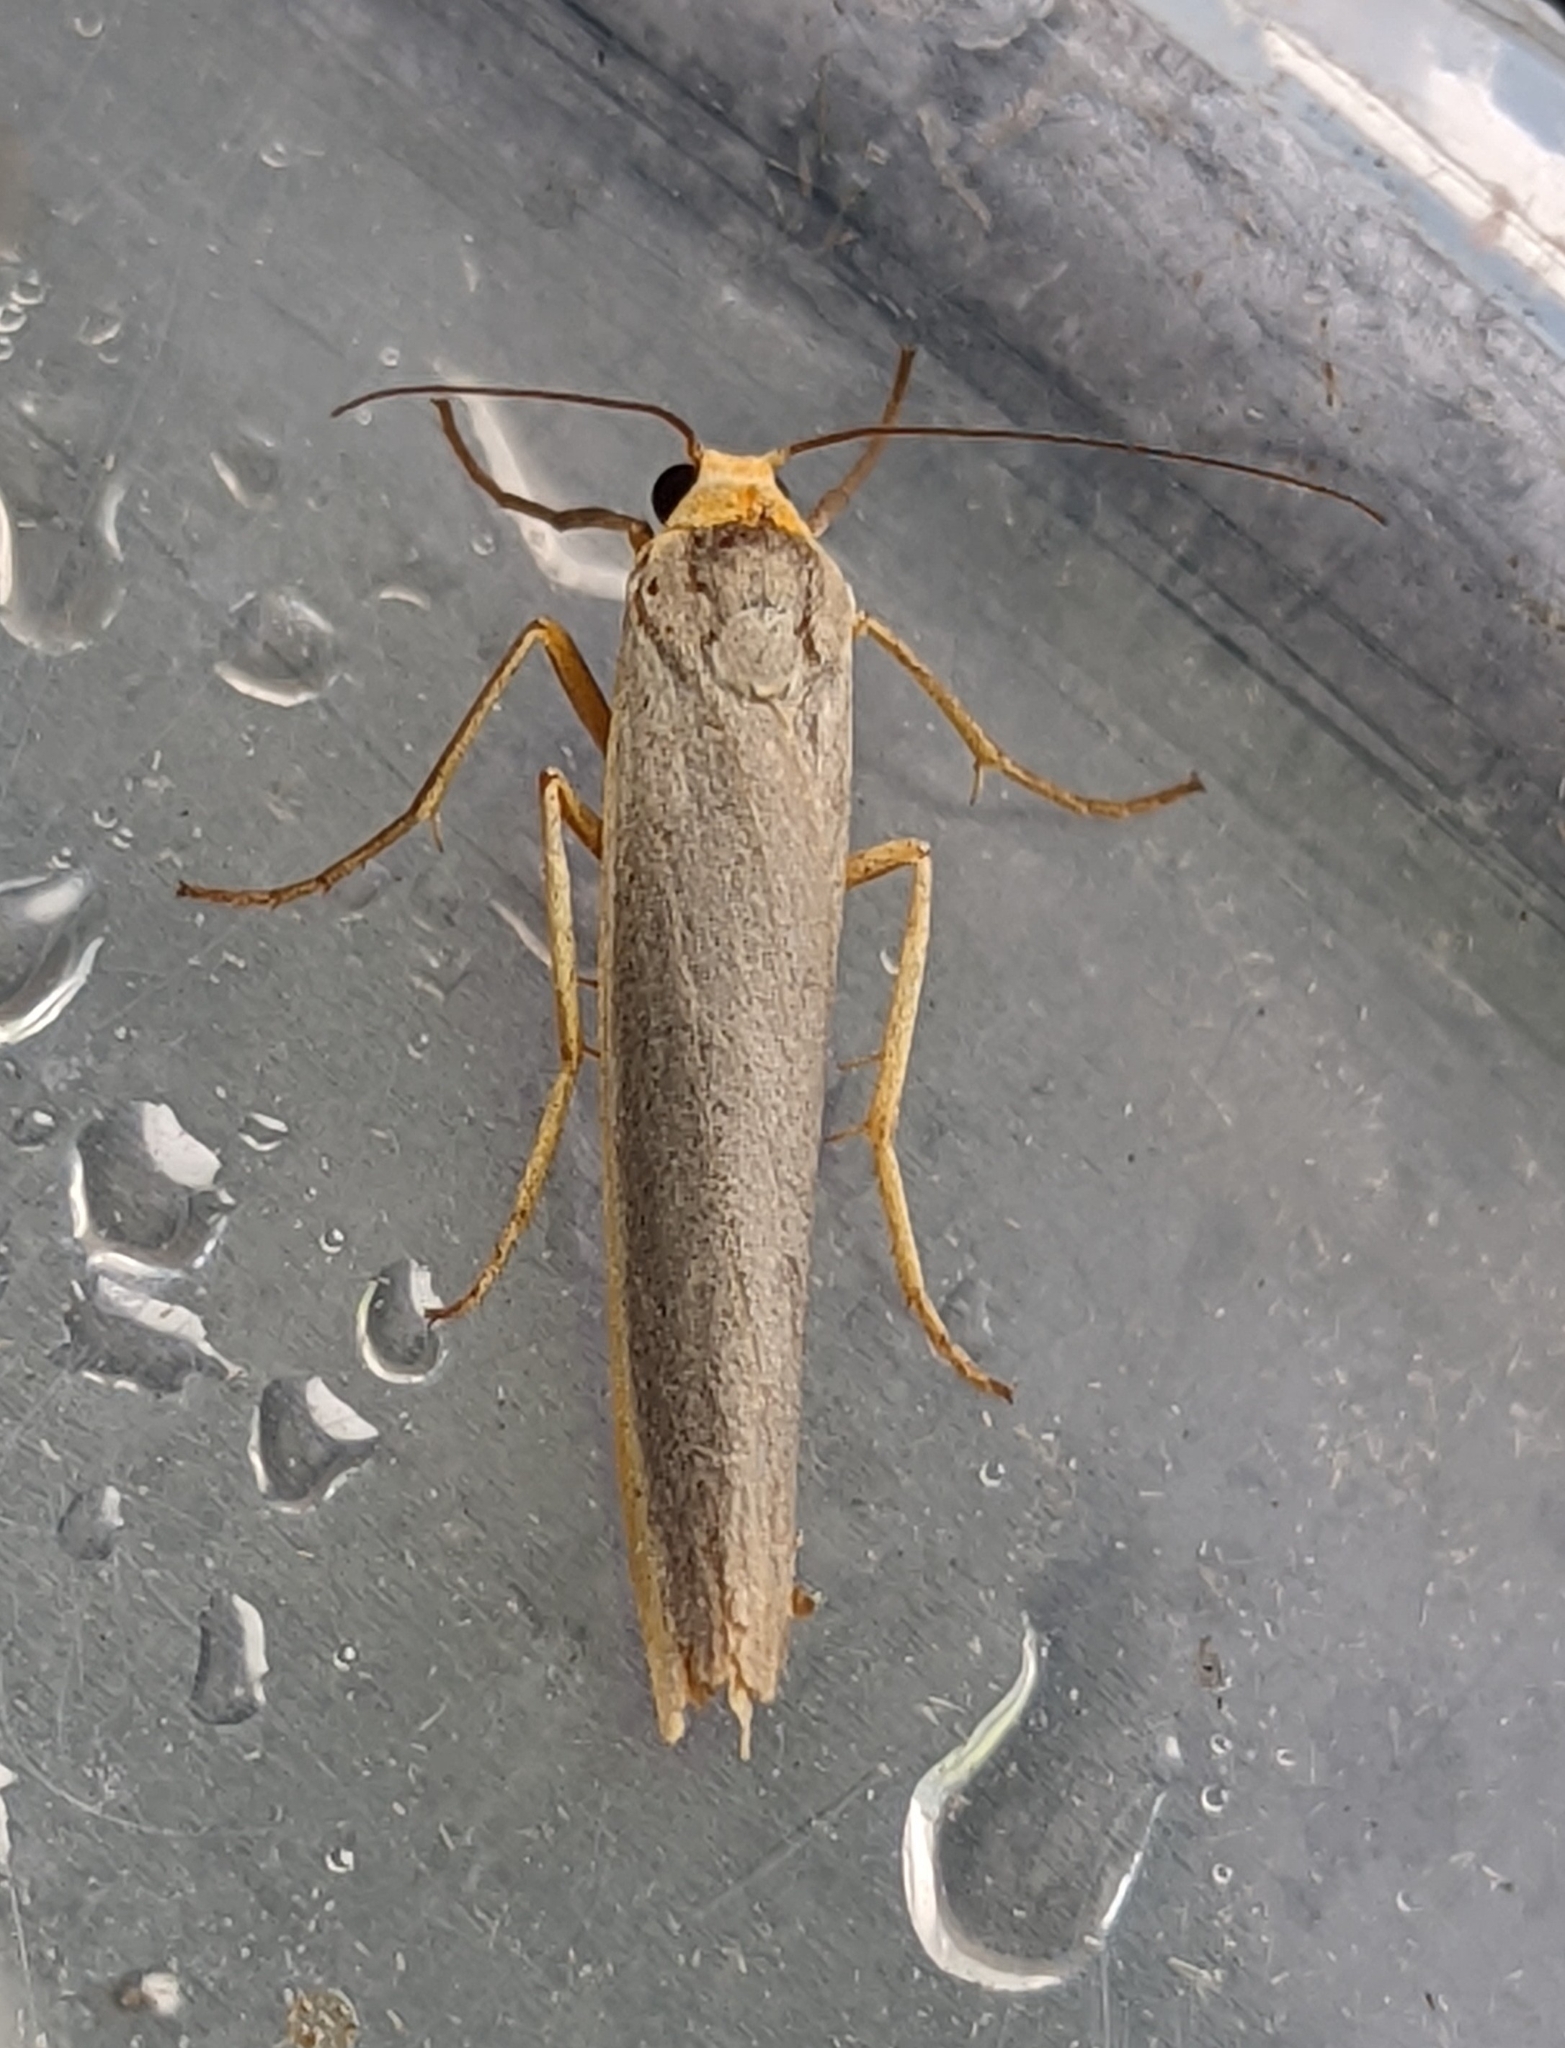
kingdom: Animalia
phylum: Arthropoda
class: Insecta
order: Lepidoptera
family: Erebidae
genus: Manulea
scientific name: Manulea complana
